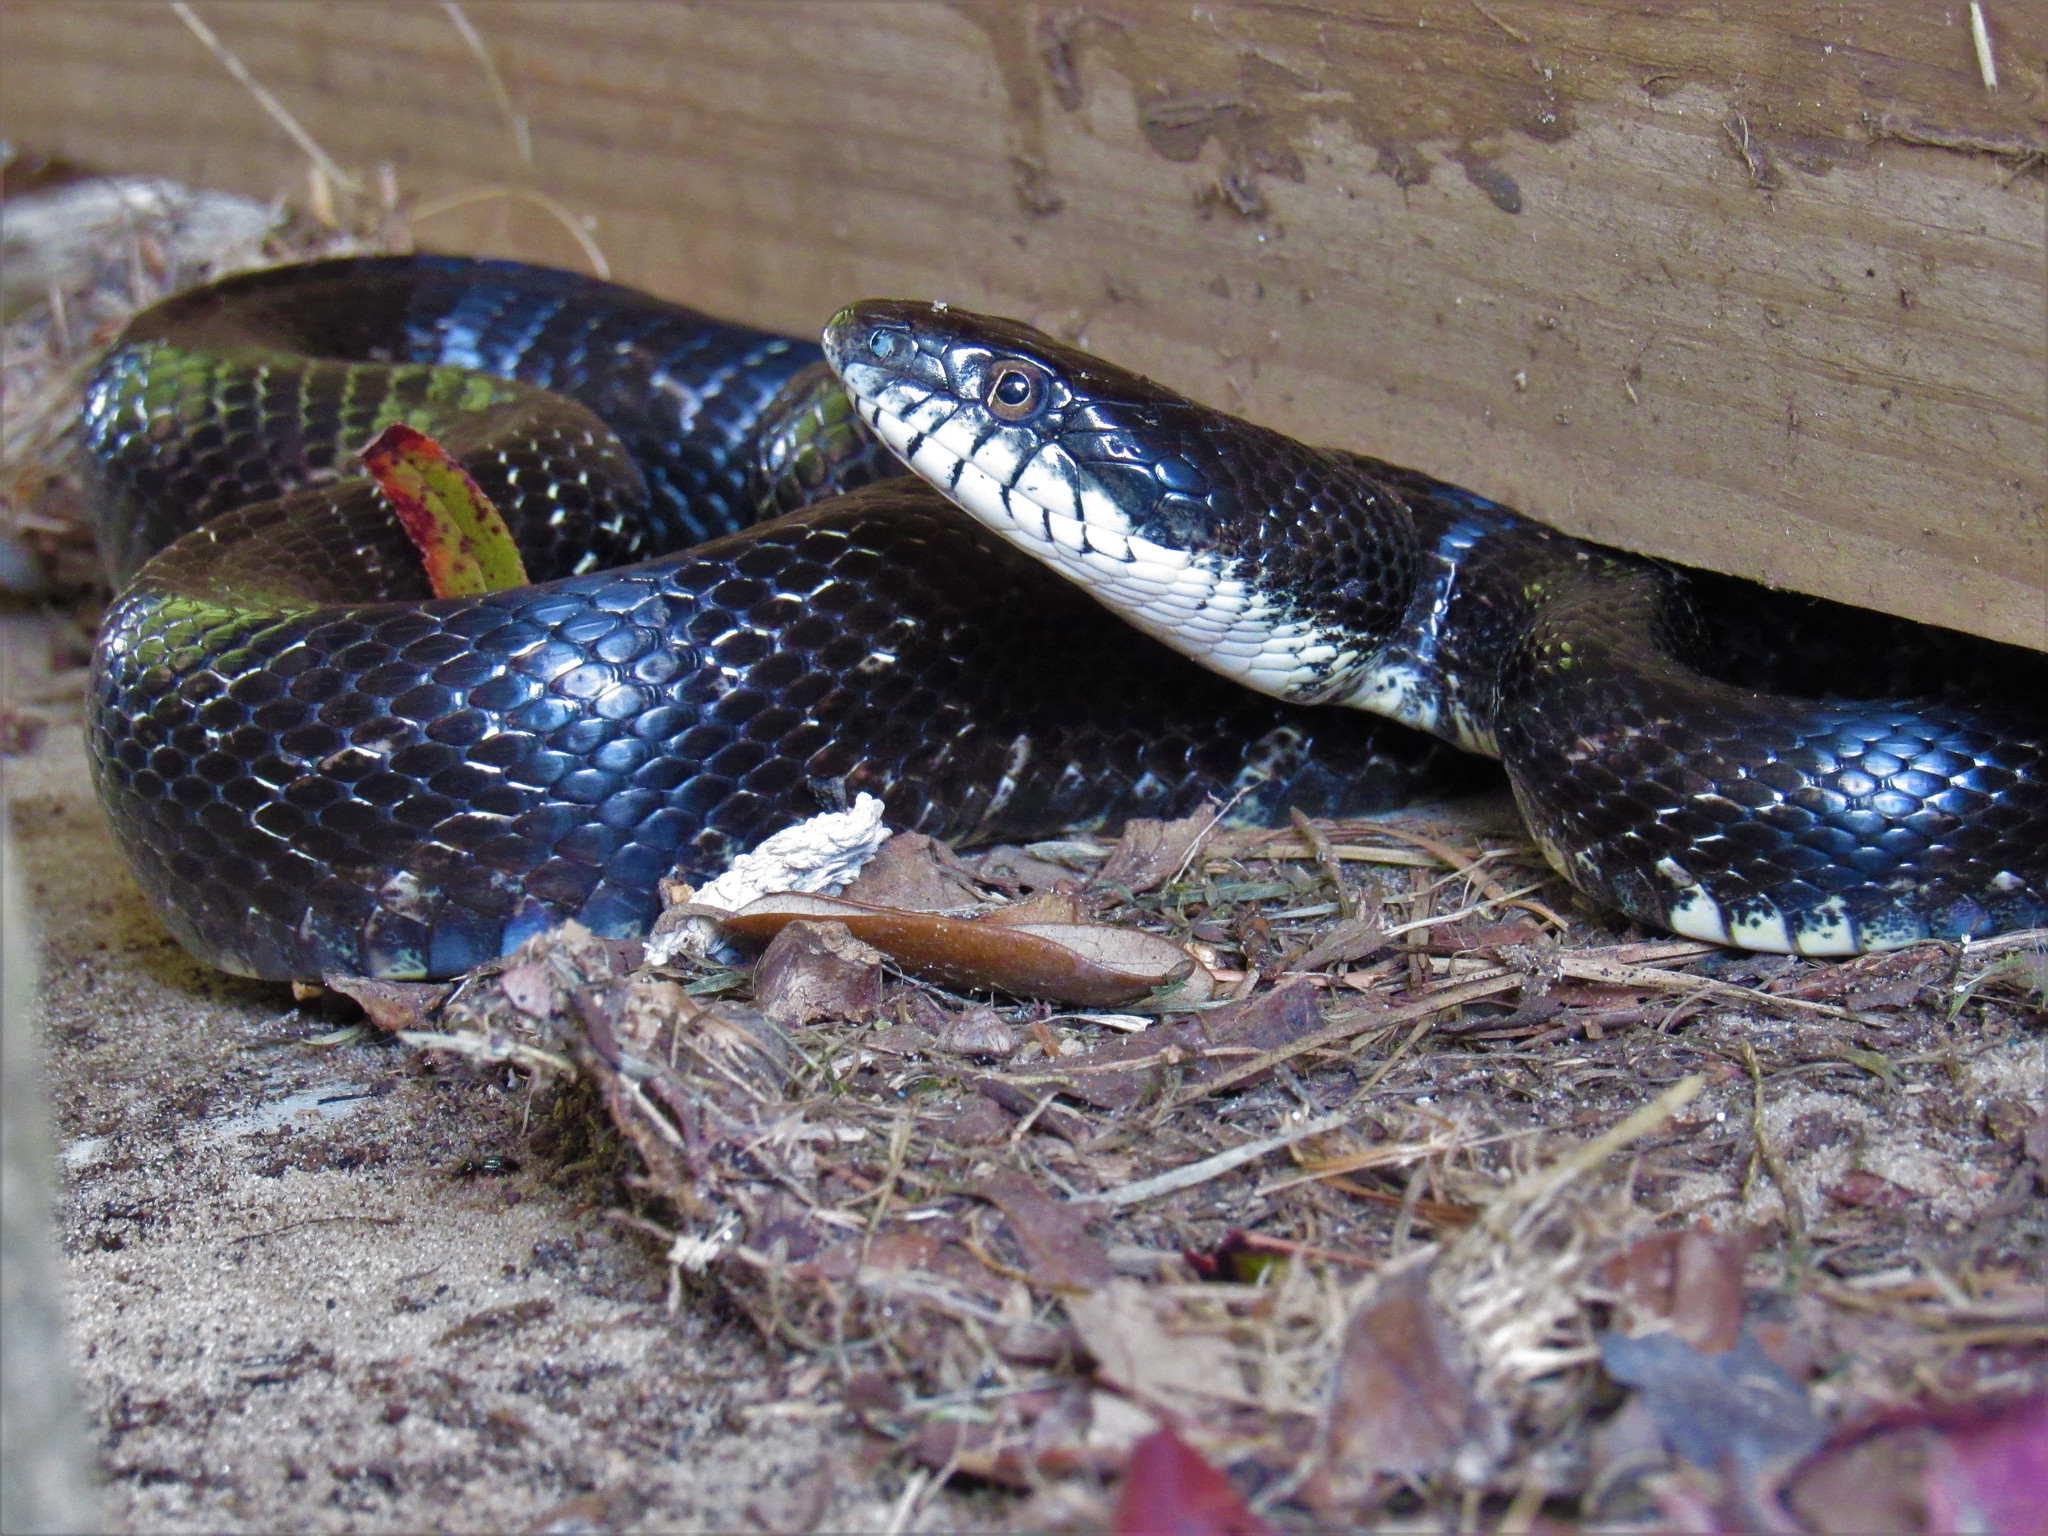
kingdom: Animalia
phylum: Chordata
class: Squamata
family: Colubridae
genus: Pantherophis
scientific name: Pantherophis alleghaniensis
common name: Eastern rat snake
